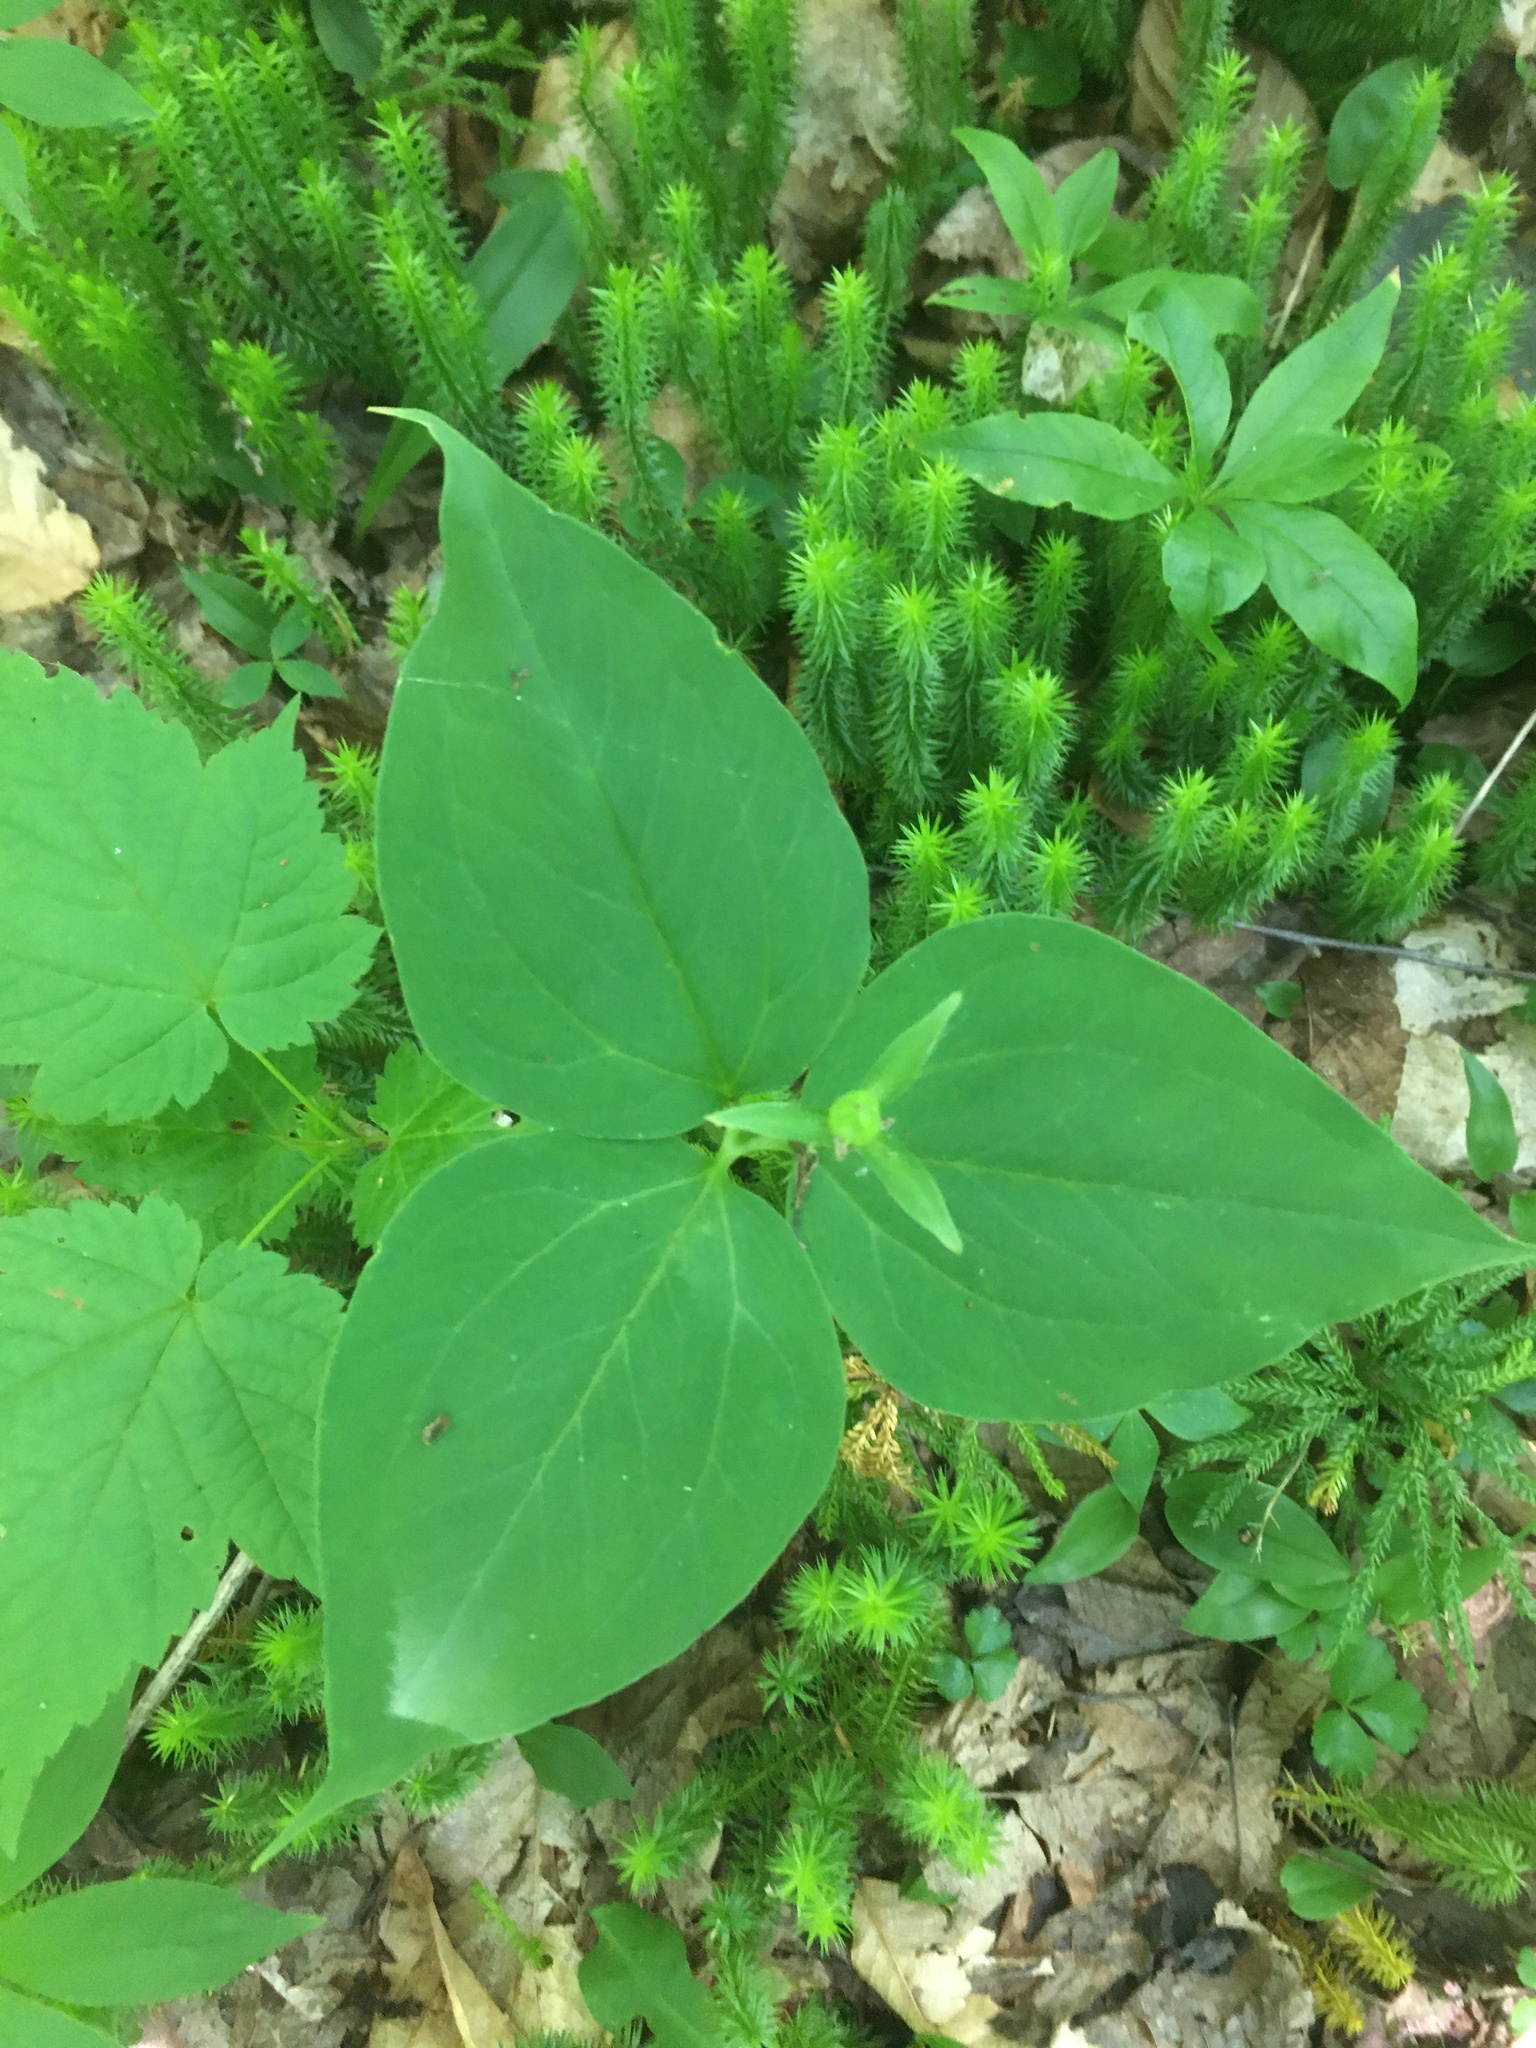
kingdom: Plantae
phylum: Tracheophyta
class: Liliopsida
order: Liliales
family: Melanthiaceae
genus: Trillium
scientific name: Trillium undulatum
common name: Paint trillium
